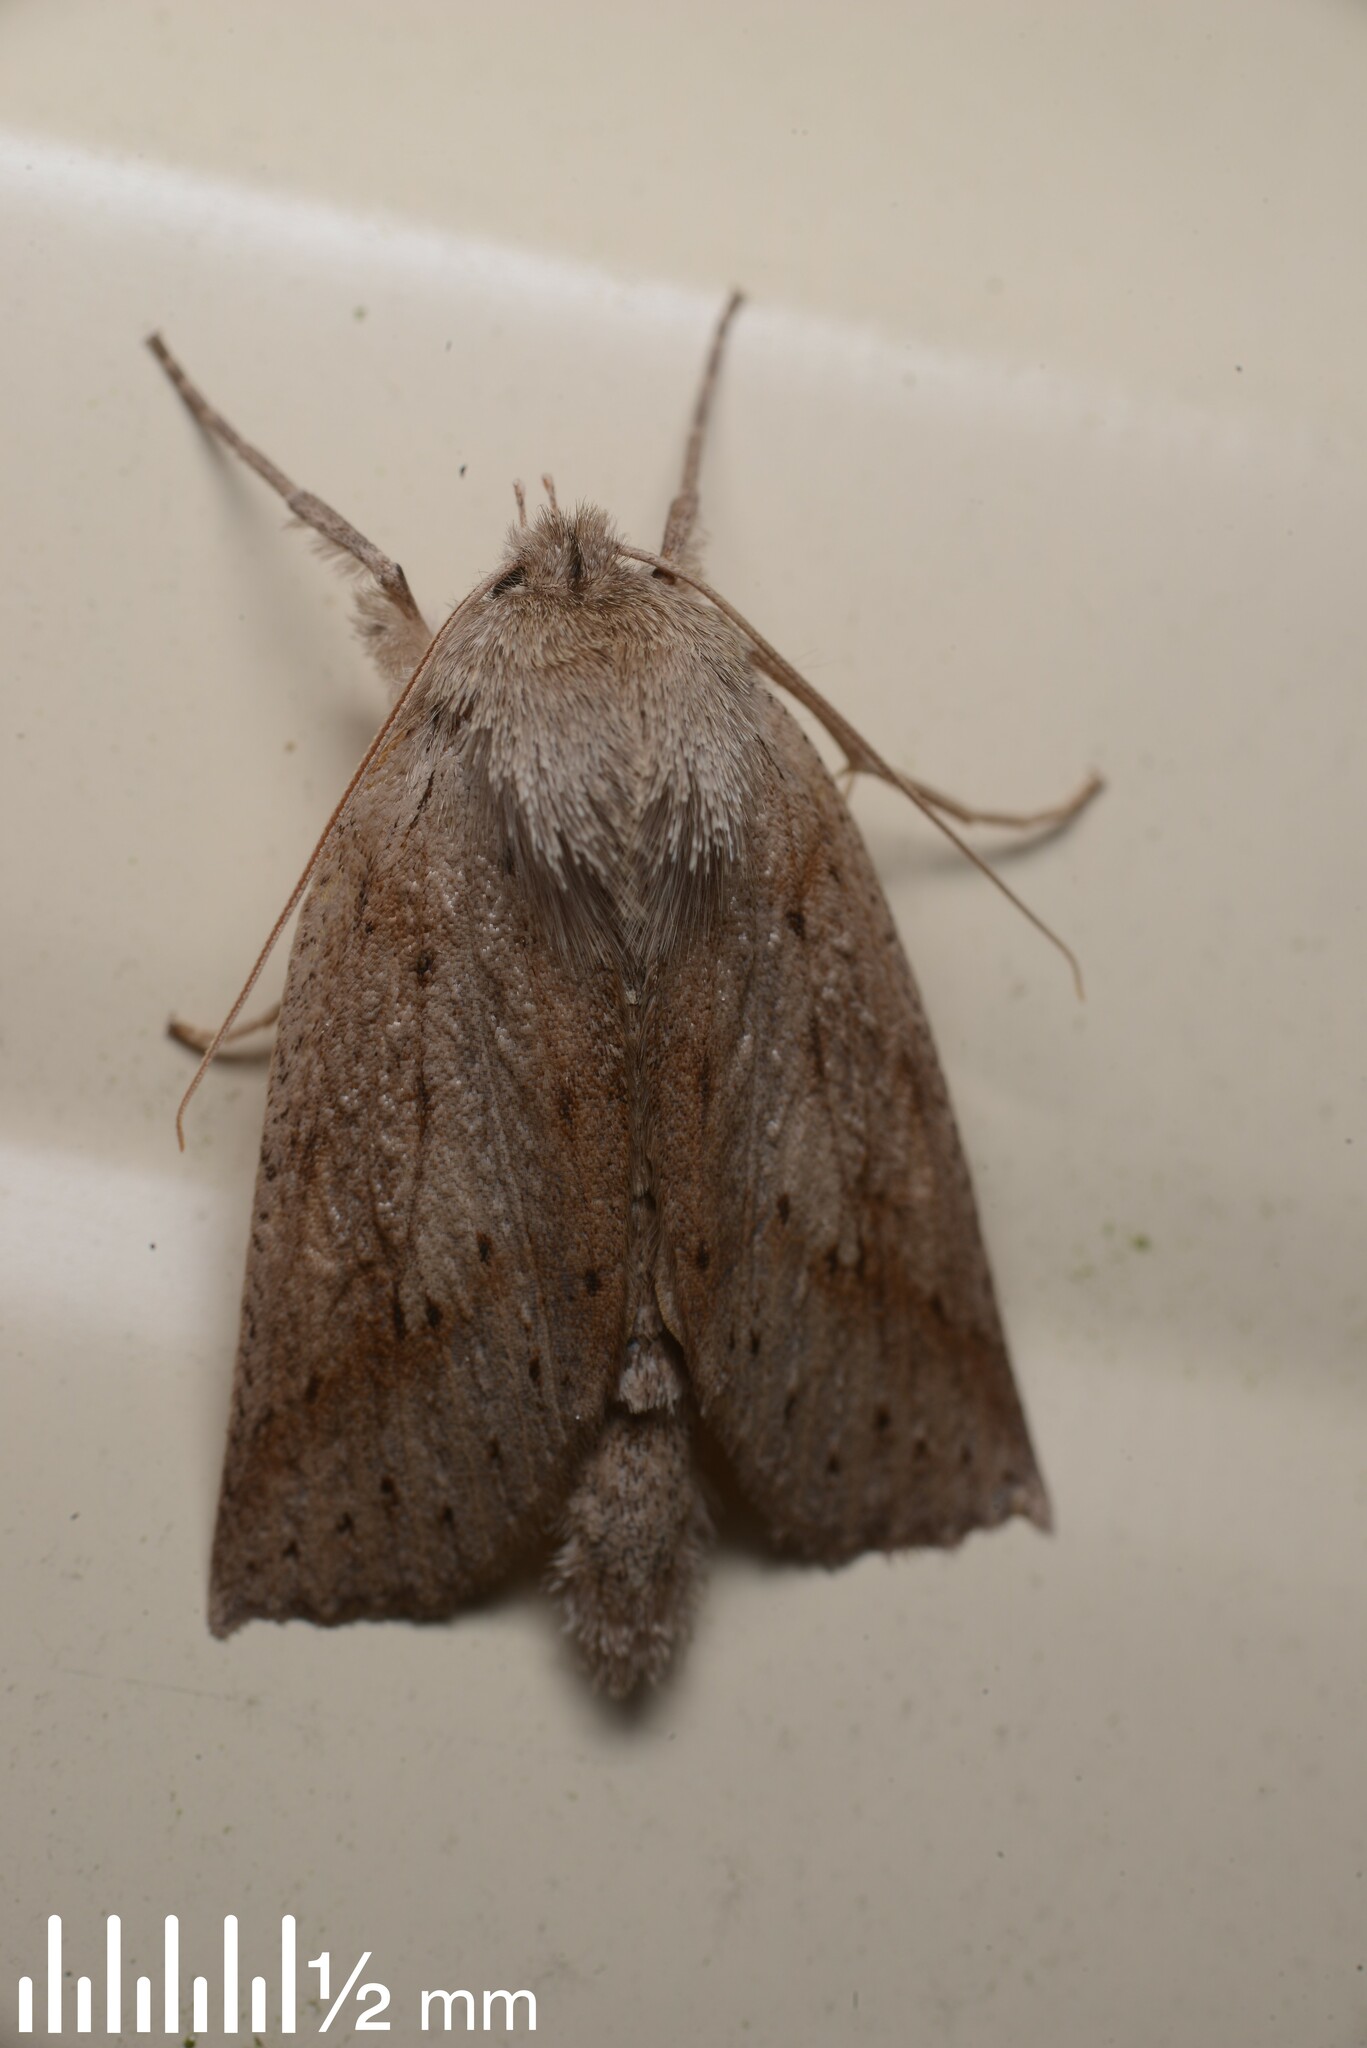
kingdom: Animalia
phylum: Arthropoda
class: Insecta
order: Lepidoptera
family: Geometridae
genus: Declana
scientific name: Declana leptomera
